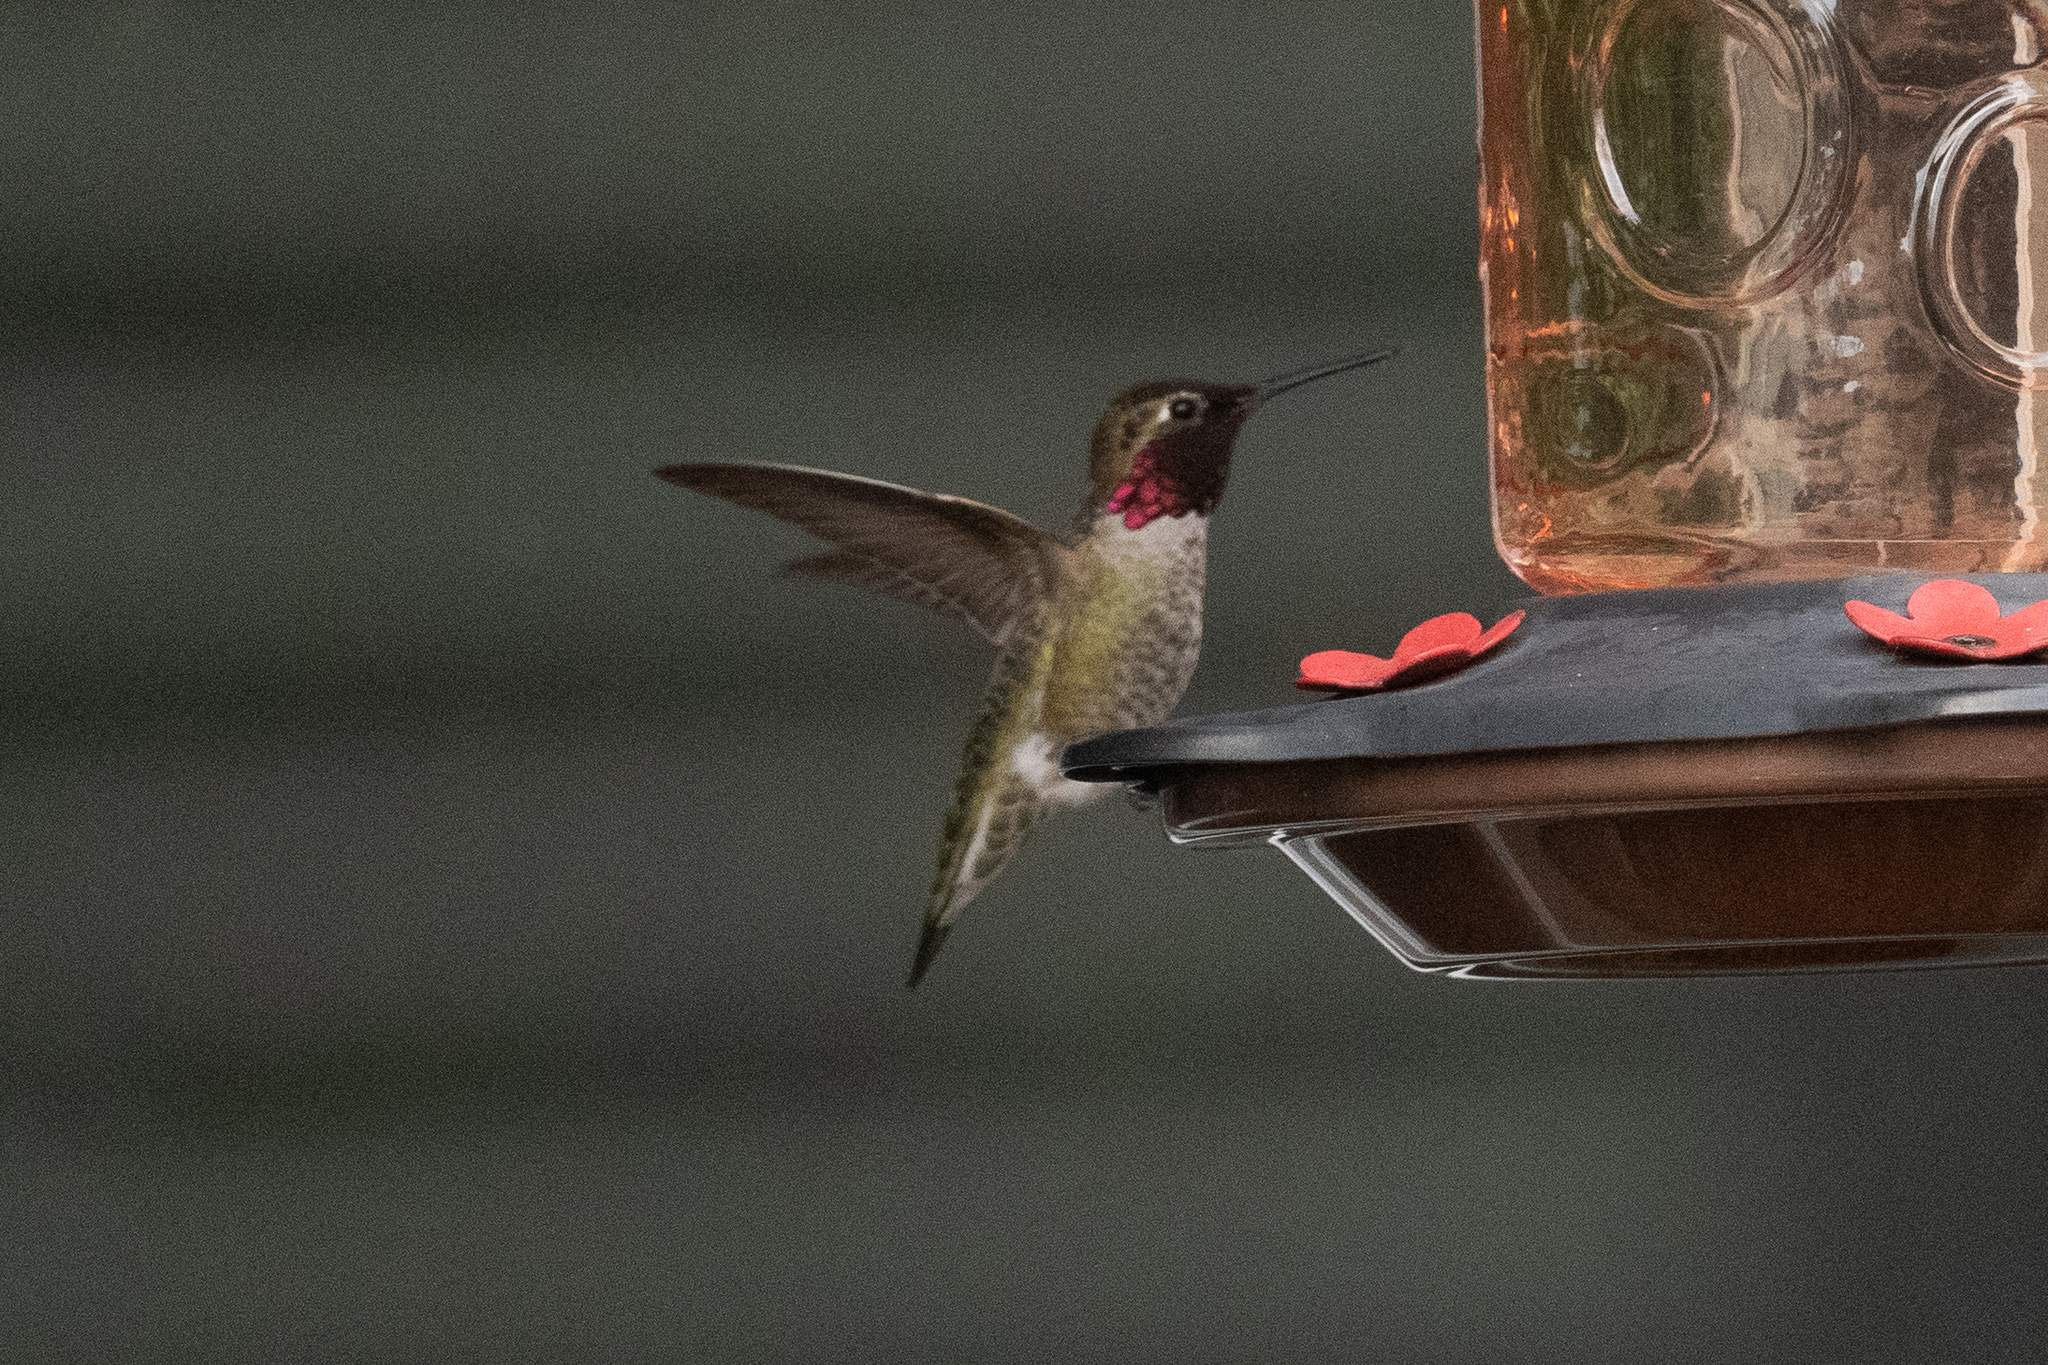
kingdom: Animalia
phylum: Chordata
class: Aves
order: Apodiformes
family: Trochilidae
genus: Calypte
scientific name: Calypte anna
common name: Anna's hummingbird
